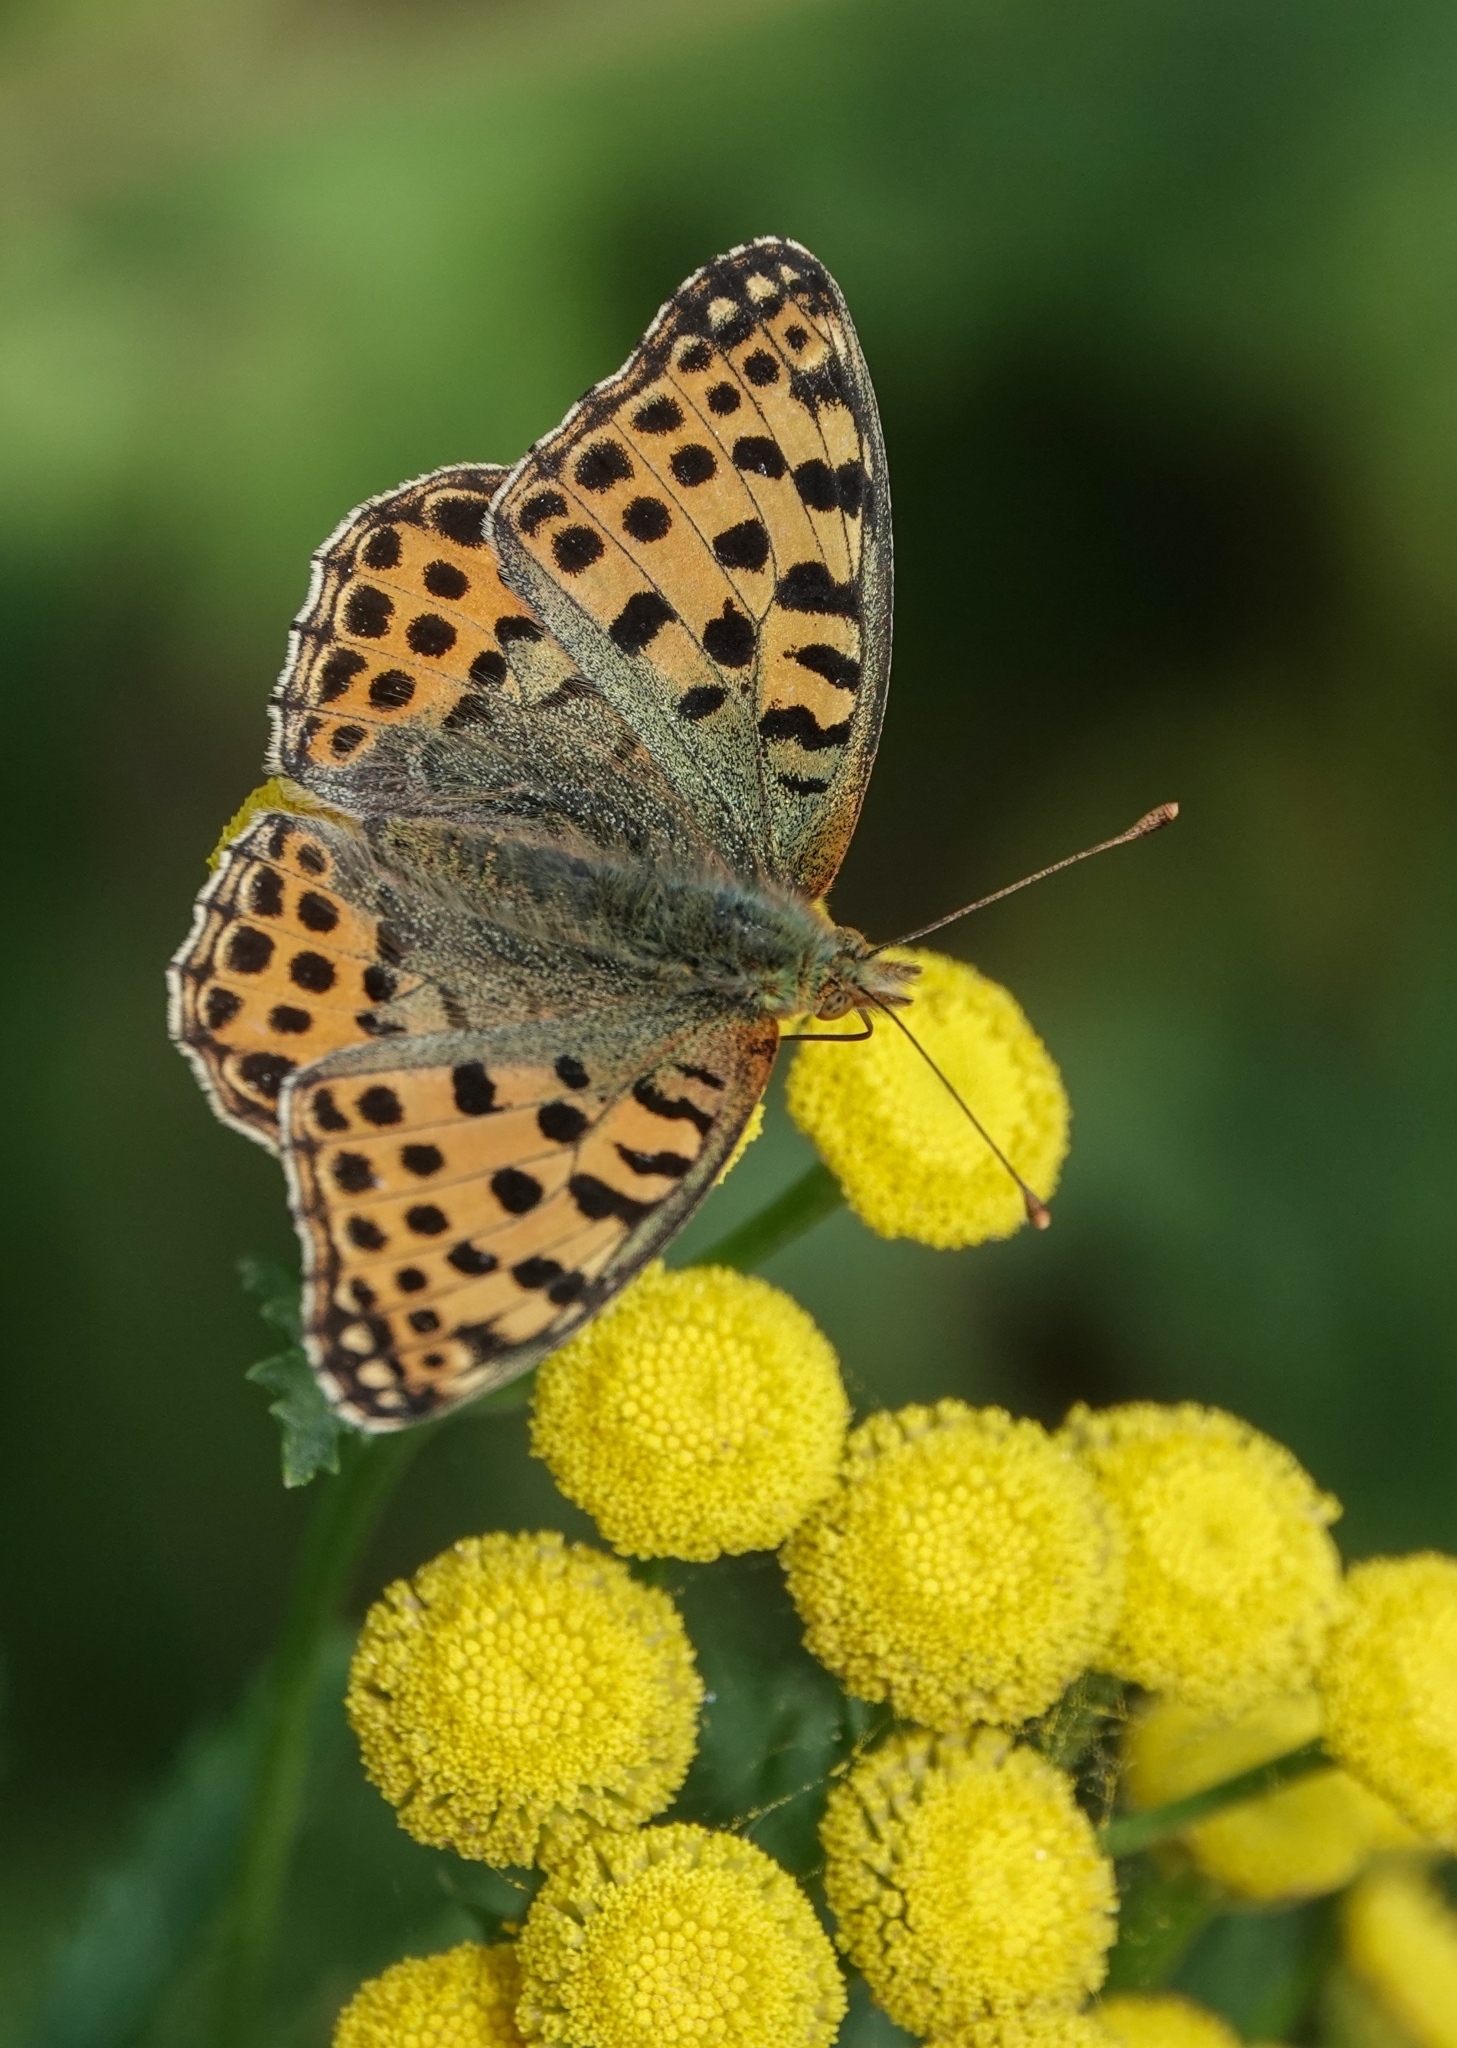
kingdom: Animalia
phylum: Arthropoda
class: Insecta
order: Lepidoptera
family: Nymphalidae
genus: Issoria
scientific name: Issoria lathonia
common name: Queen of spain fritillary
